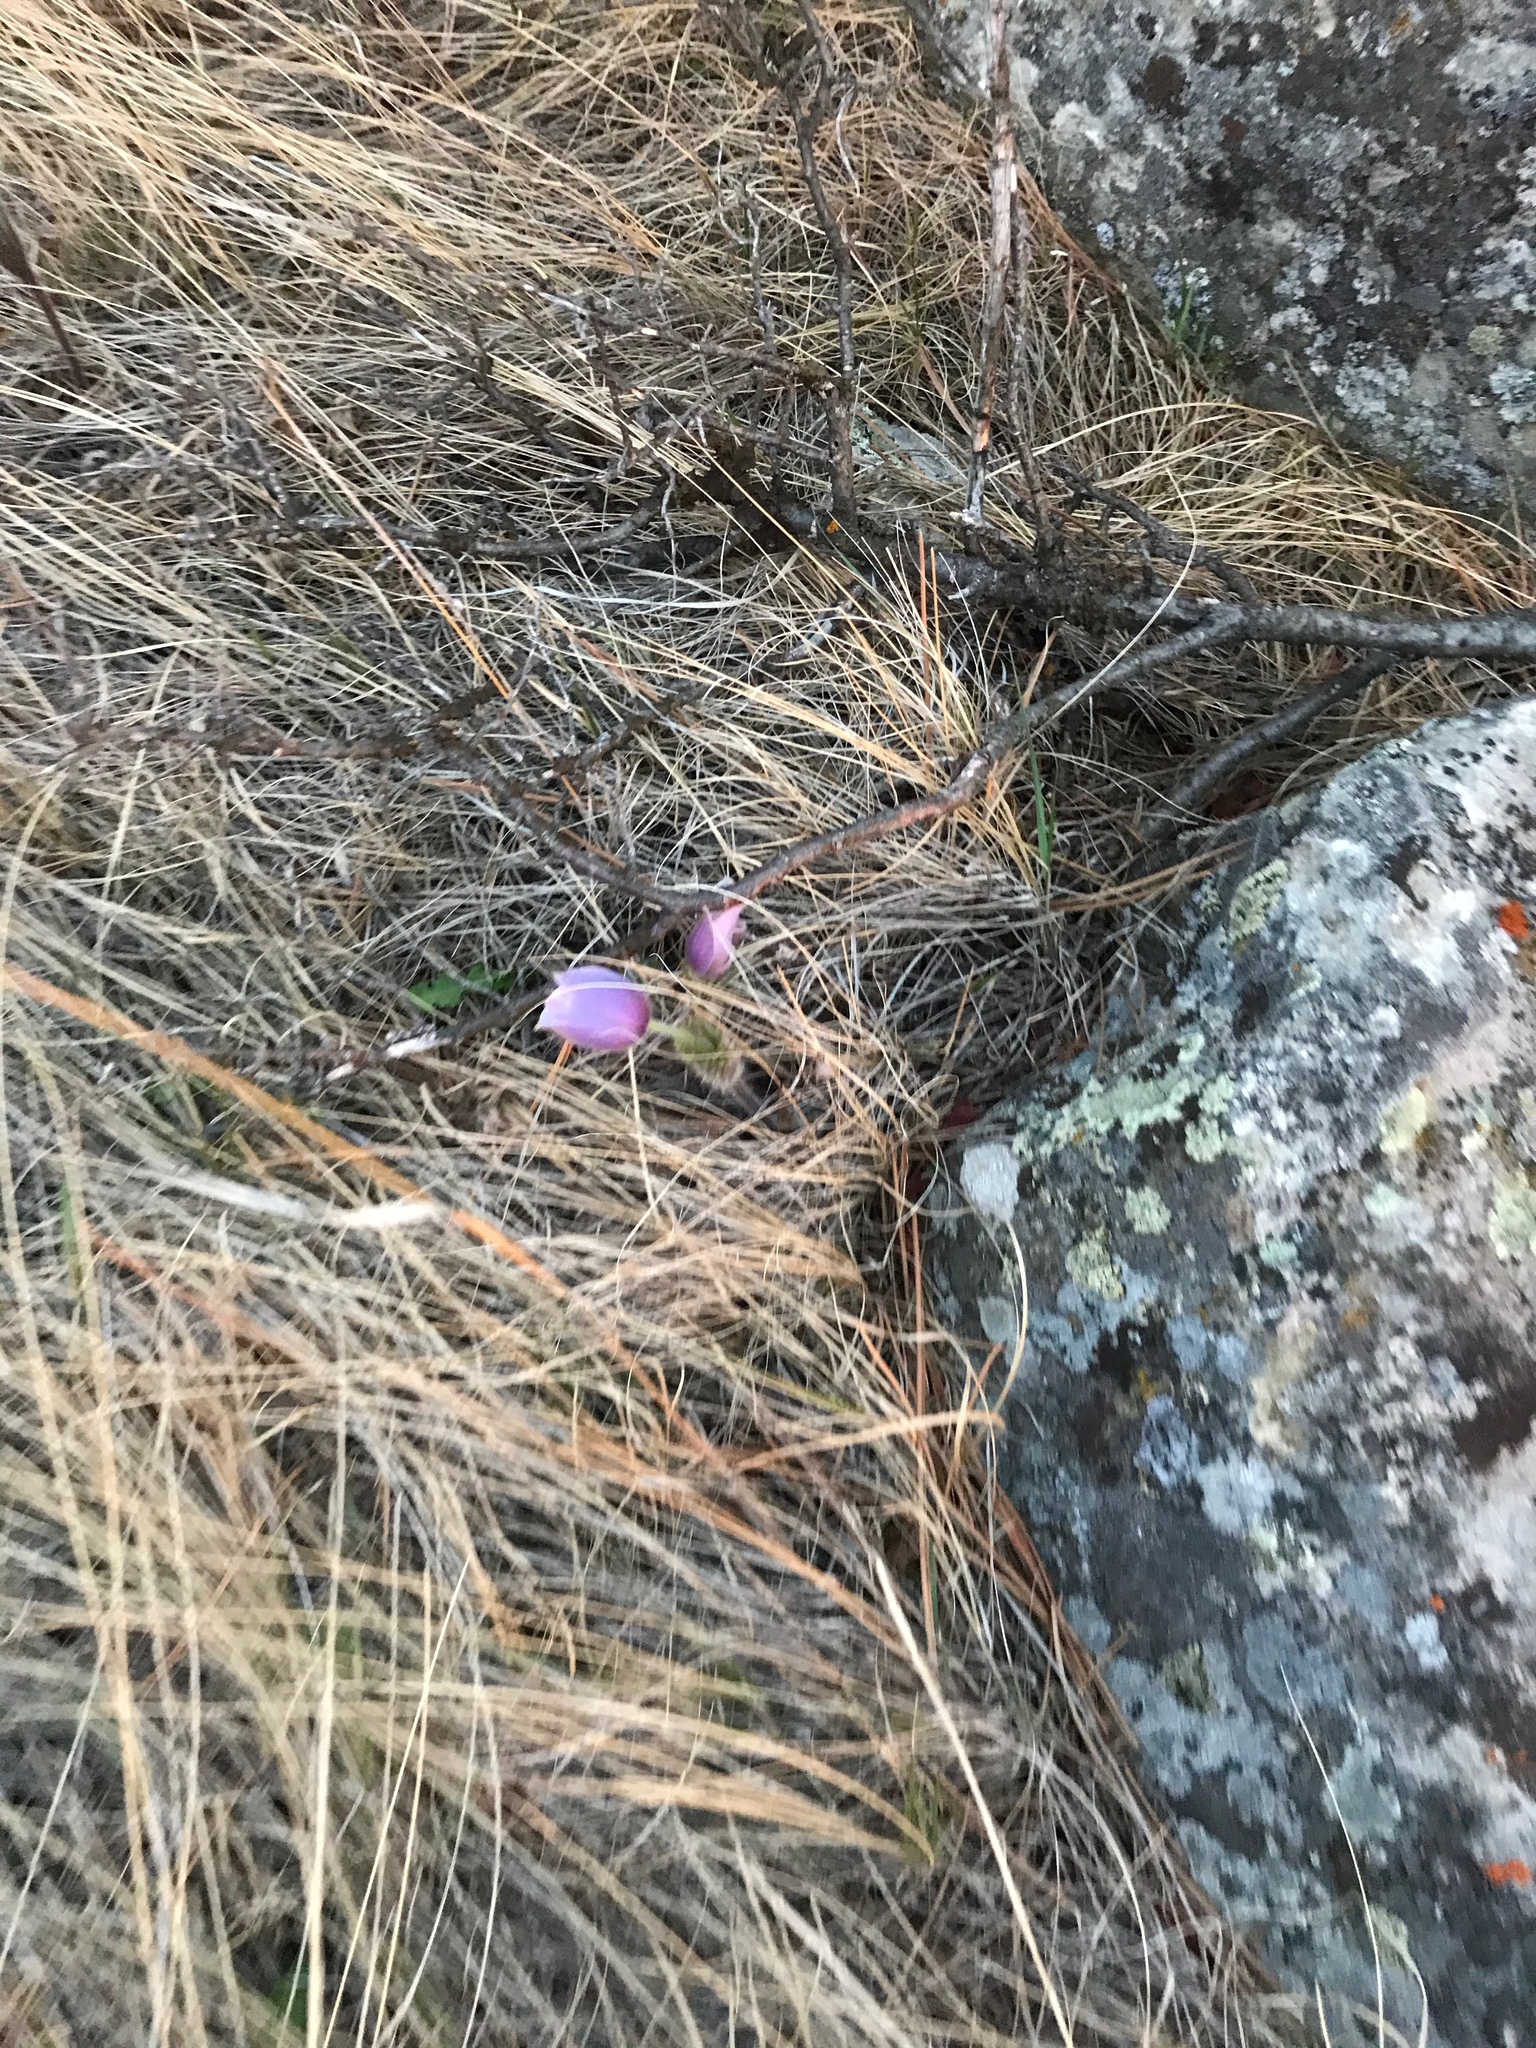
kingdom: Plantae
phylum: Tracheophyta
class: Magnoliopsida
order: Ranunculales
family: Ranunculaceae
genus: Pulsatilla
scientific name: Pulsatilla nuttalliana
